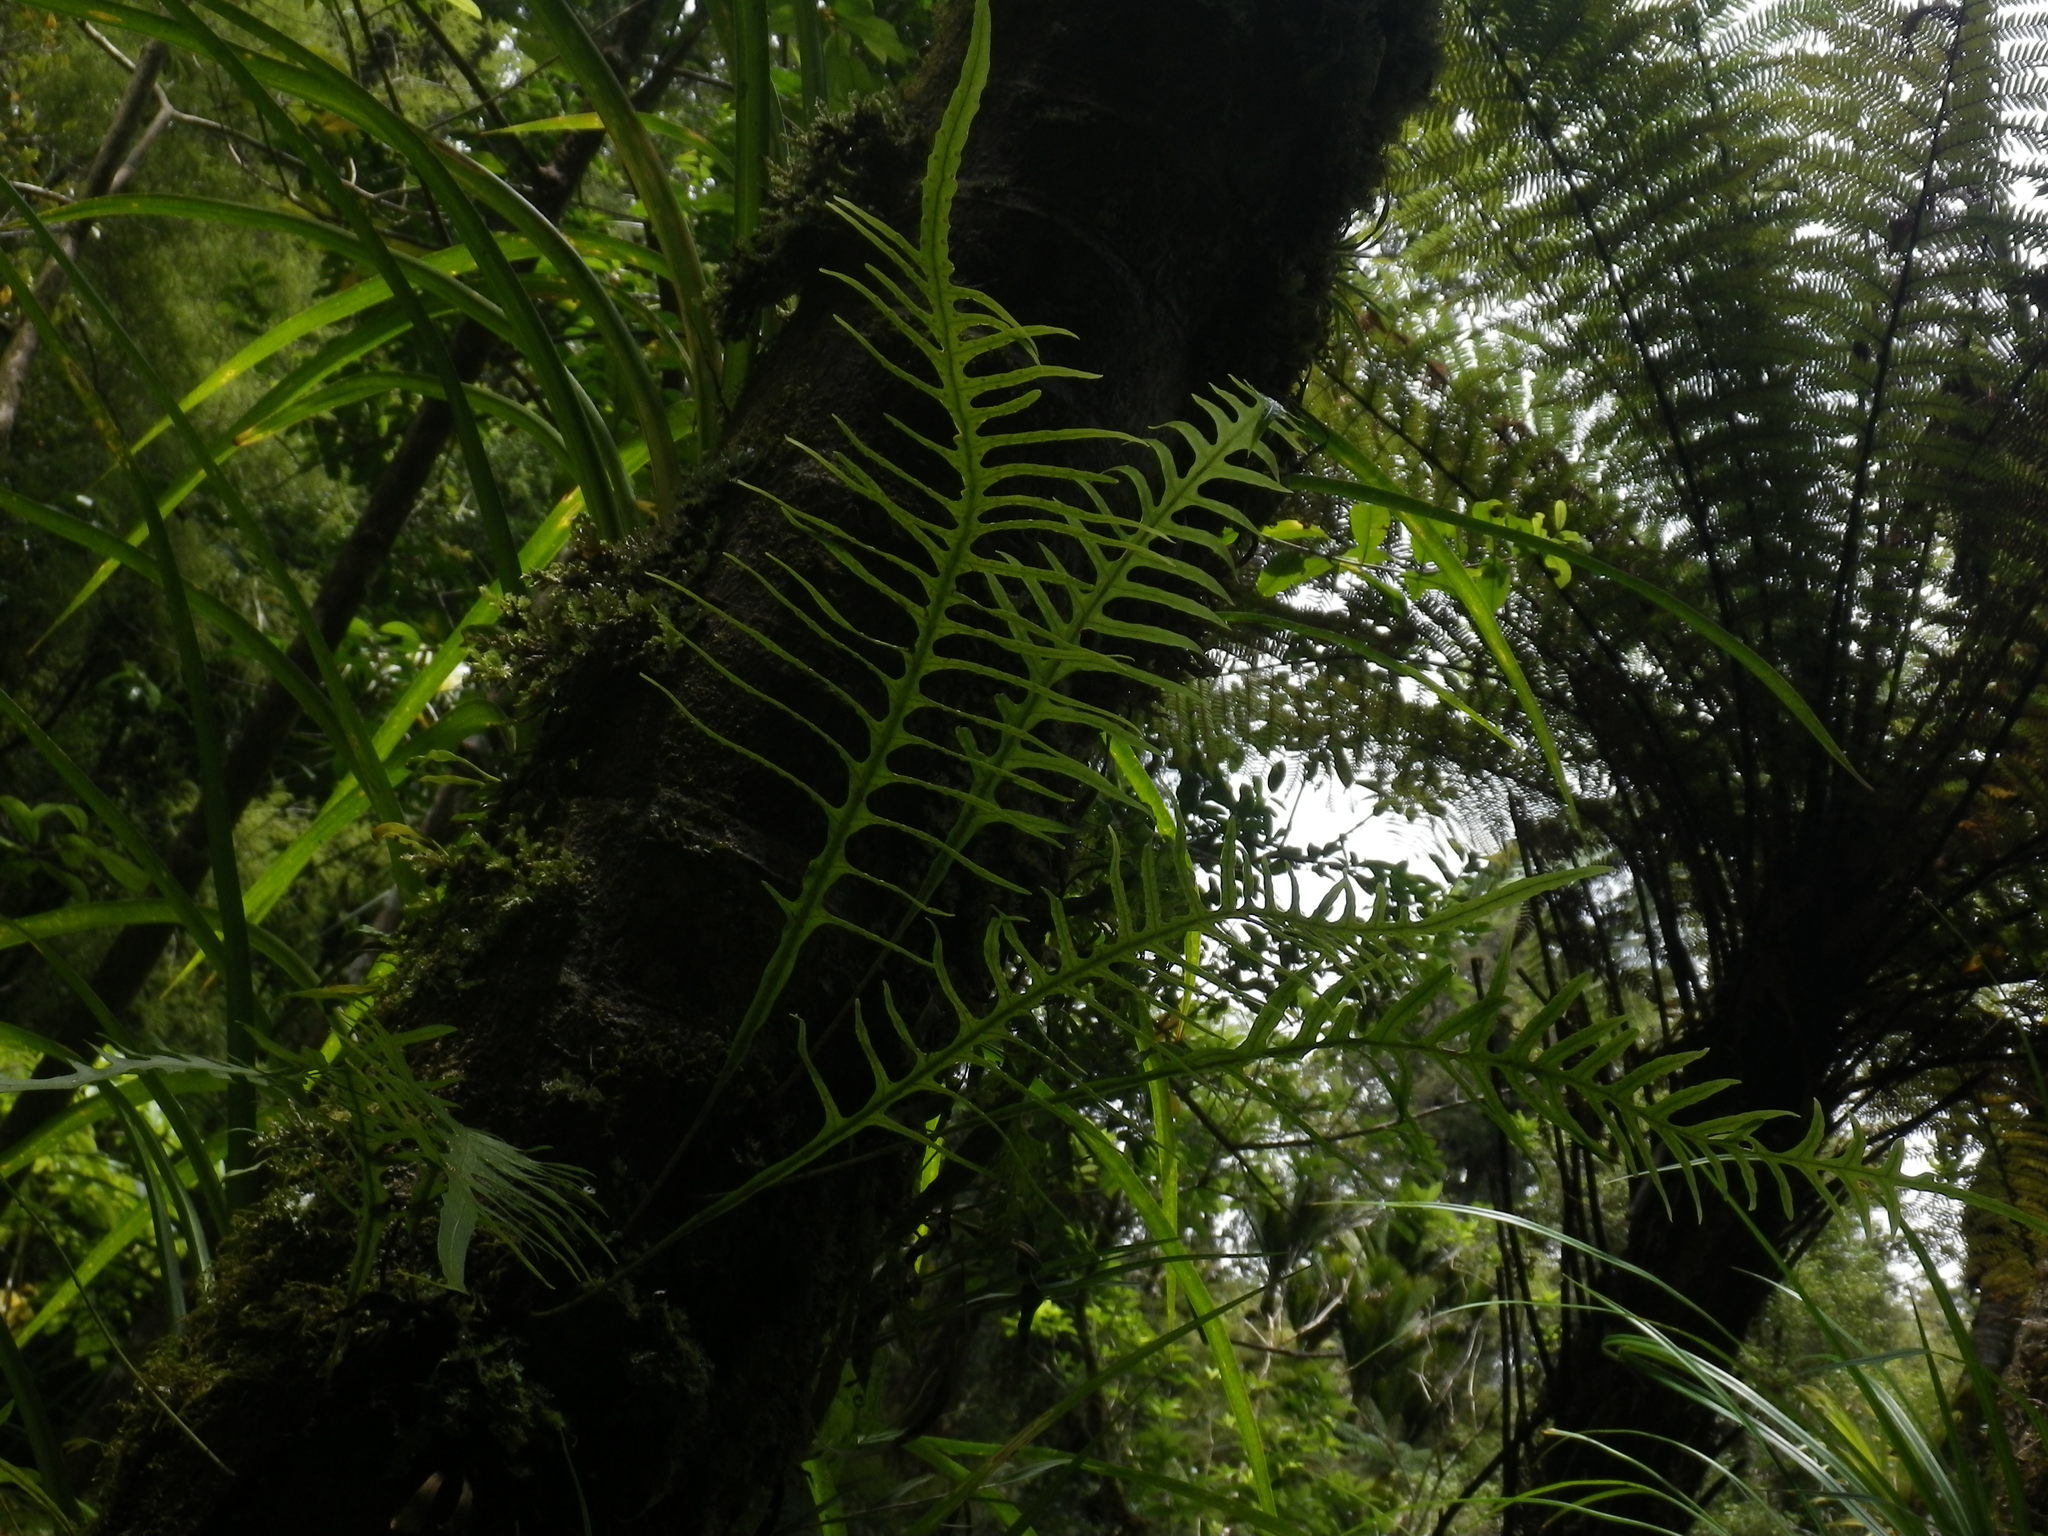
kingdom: Plantae
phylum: Tracheophyta
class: Polypodiopsida
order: Polypodiales
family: Polypodiaceae
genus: Lecanopteris
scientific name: Lecanopteris scandens
